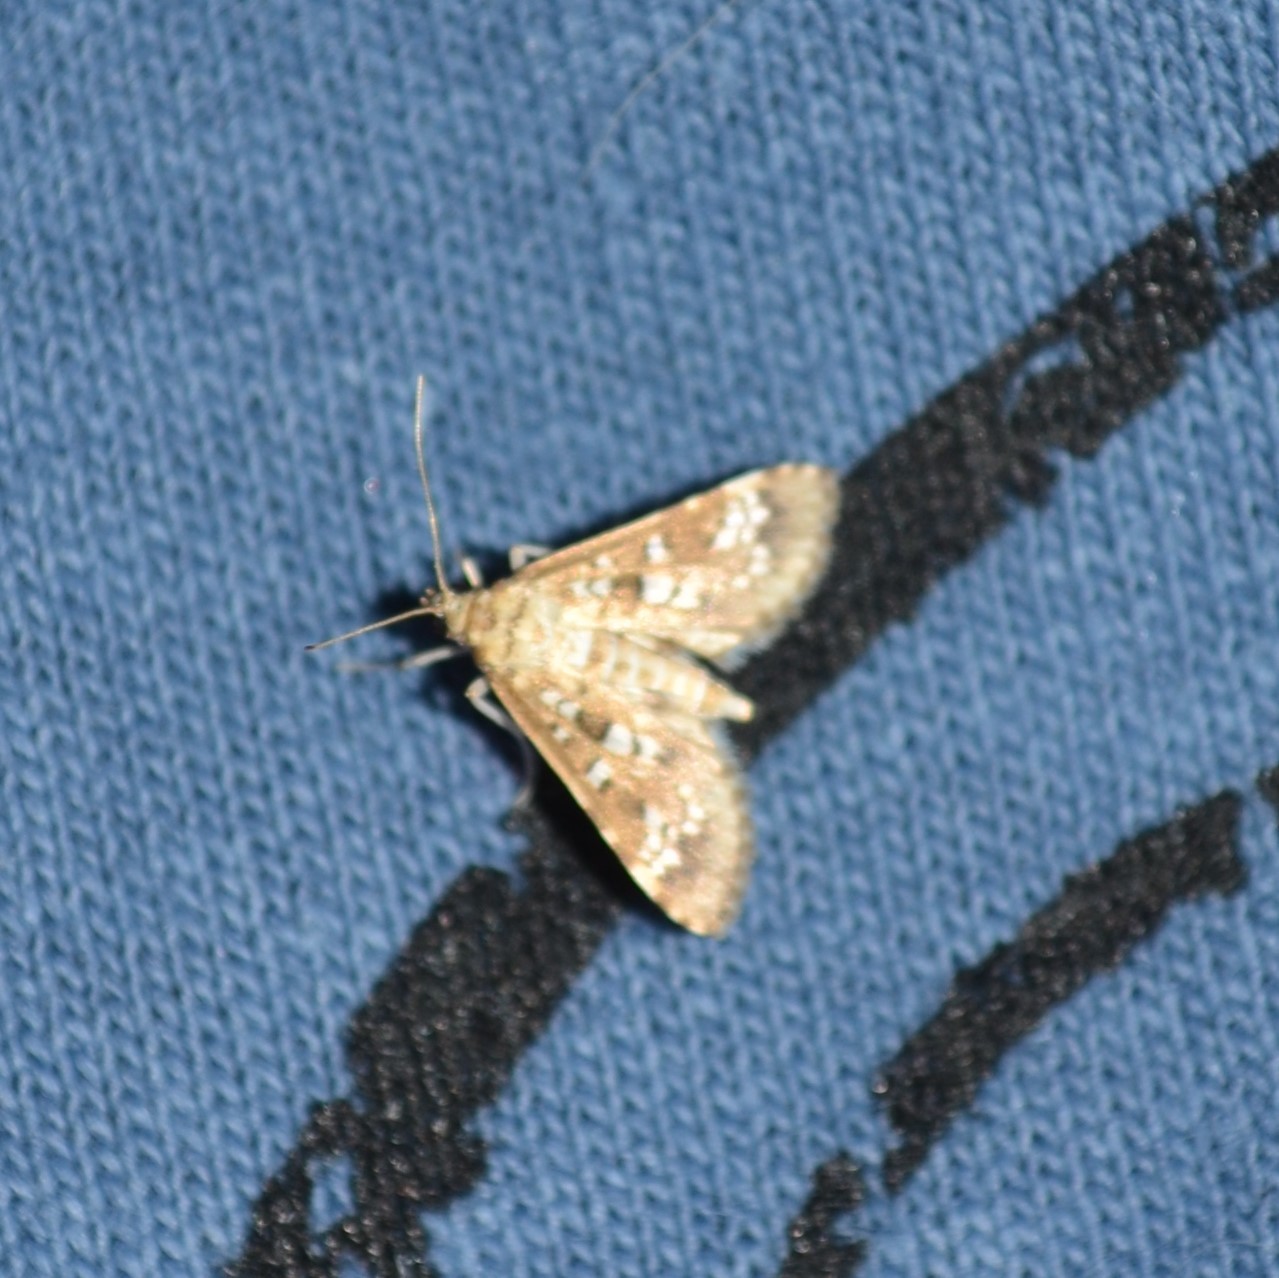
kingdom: Animalia
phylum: Arthropoda
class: Insecta
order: Lepidoptera
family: Crambidae
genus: Samea
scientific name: Samea multiplicalis
